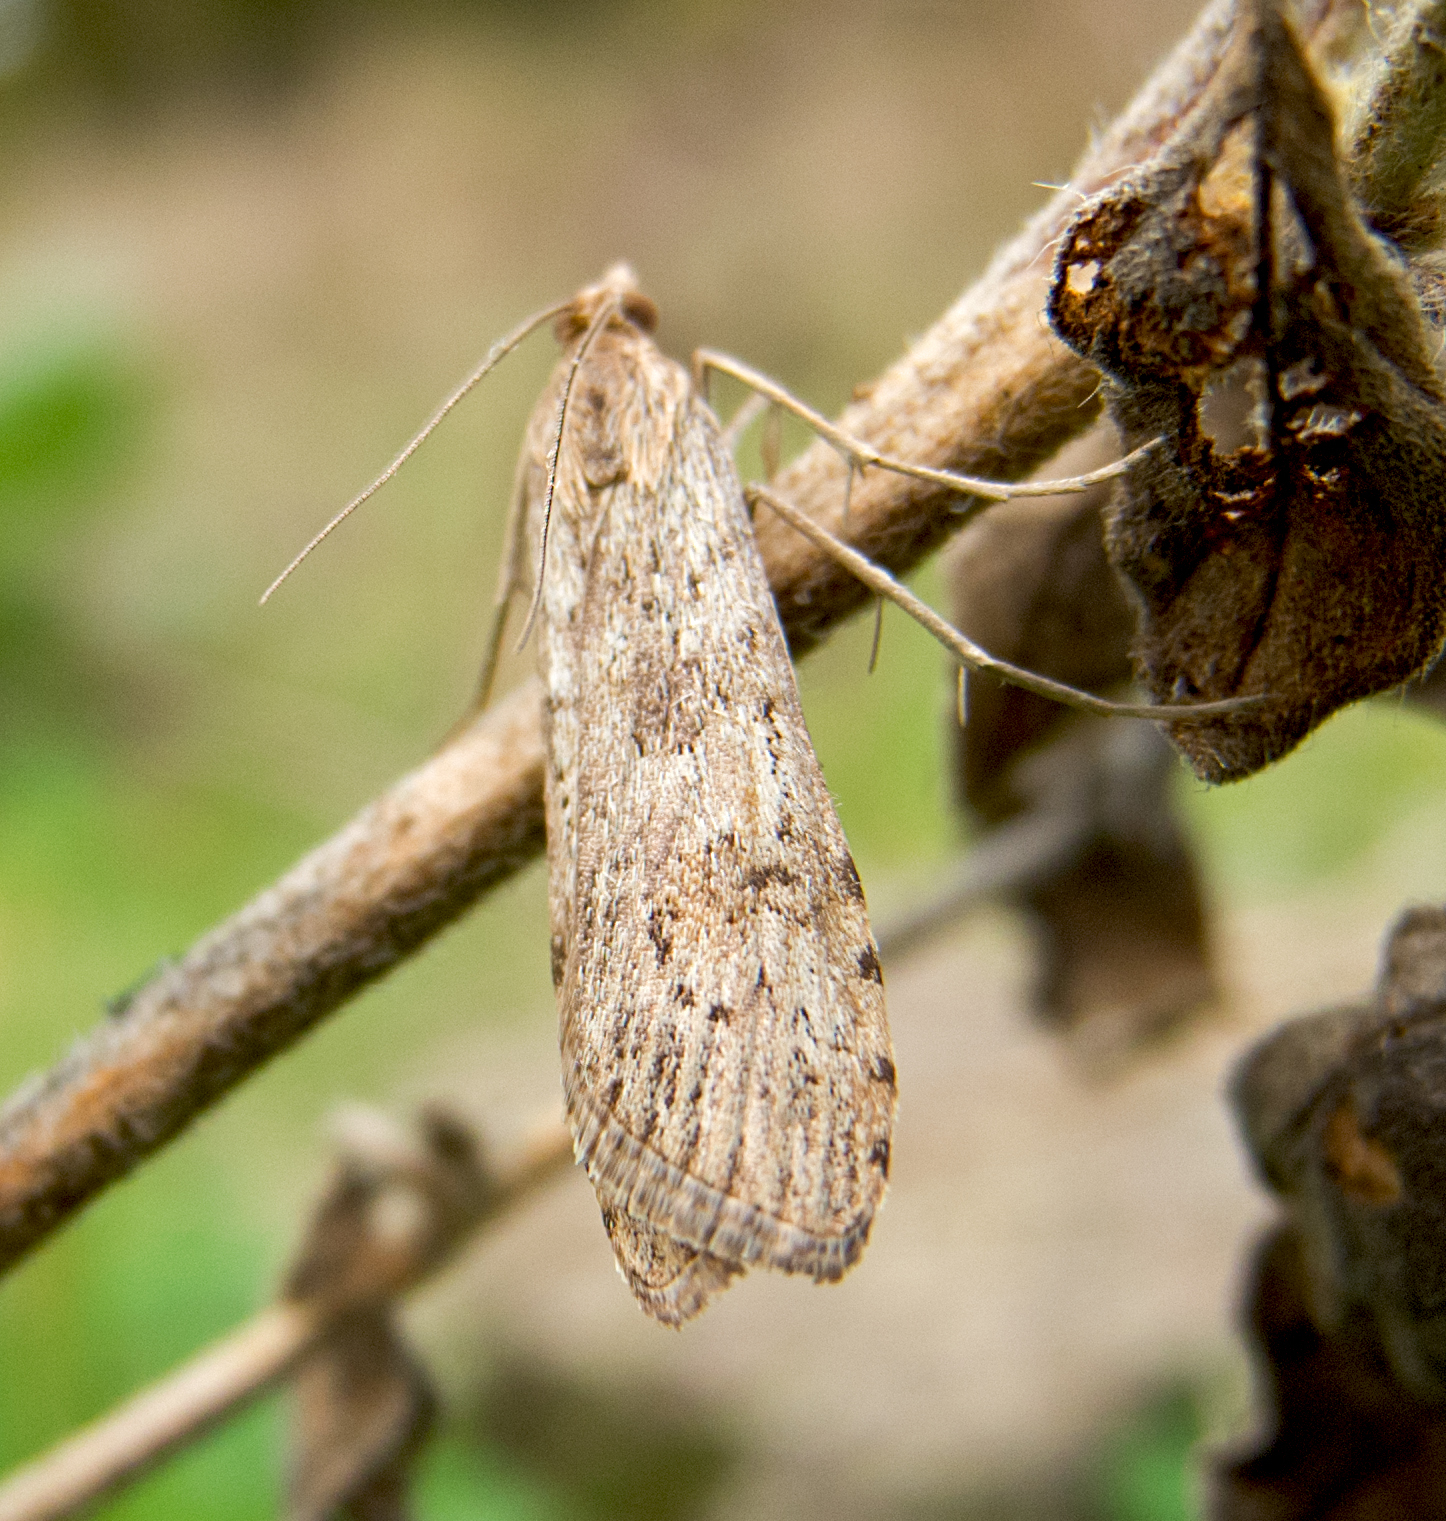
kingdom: Animalia
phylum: Arthropoda
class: Insecta
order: Lepidoptera
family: Crambidae
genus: Nomophila
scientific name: Nomophila noctuella
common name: Rush veneer
